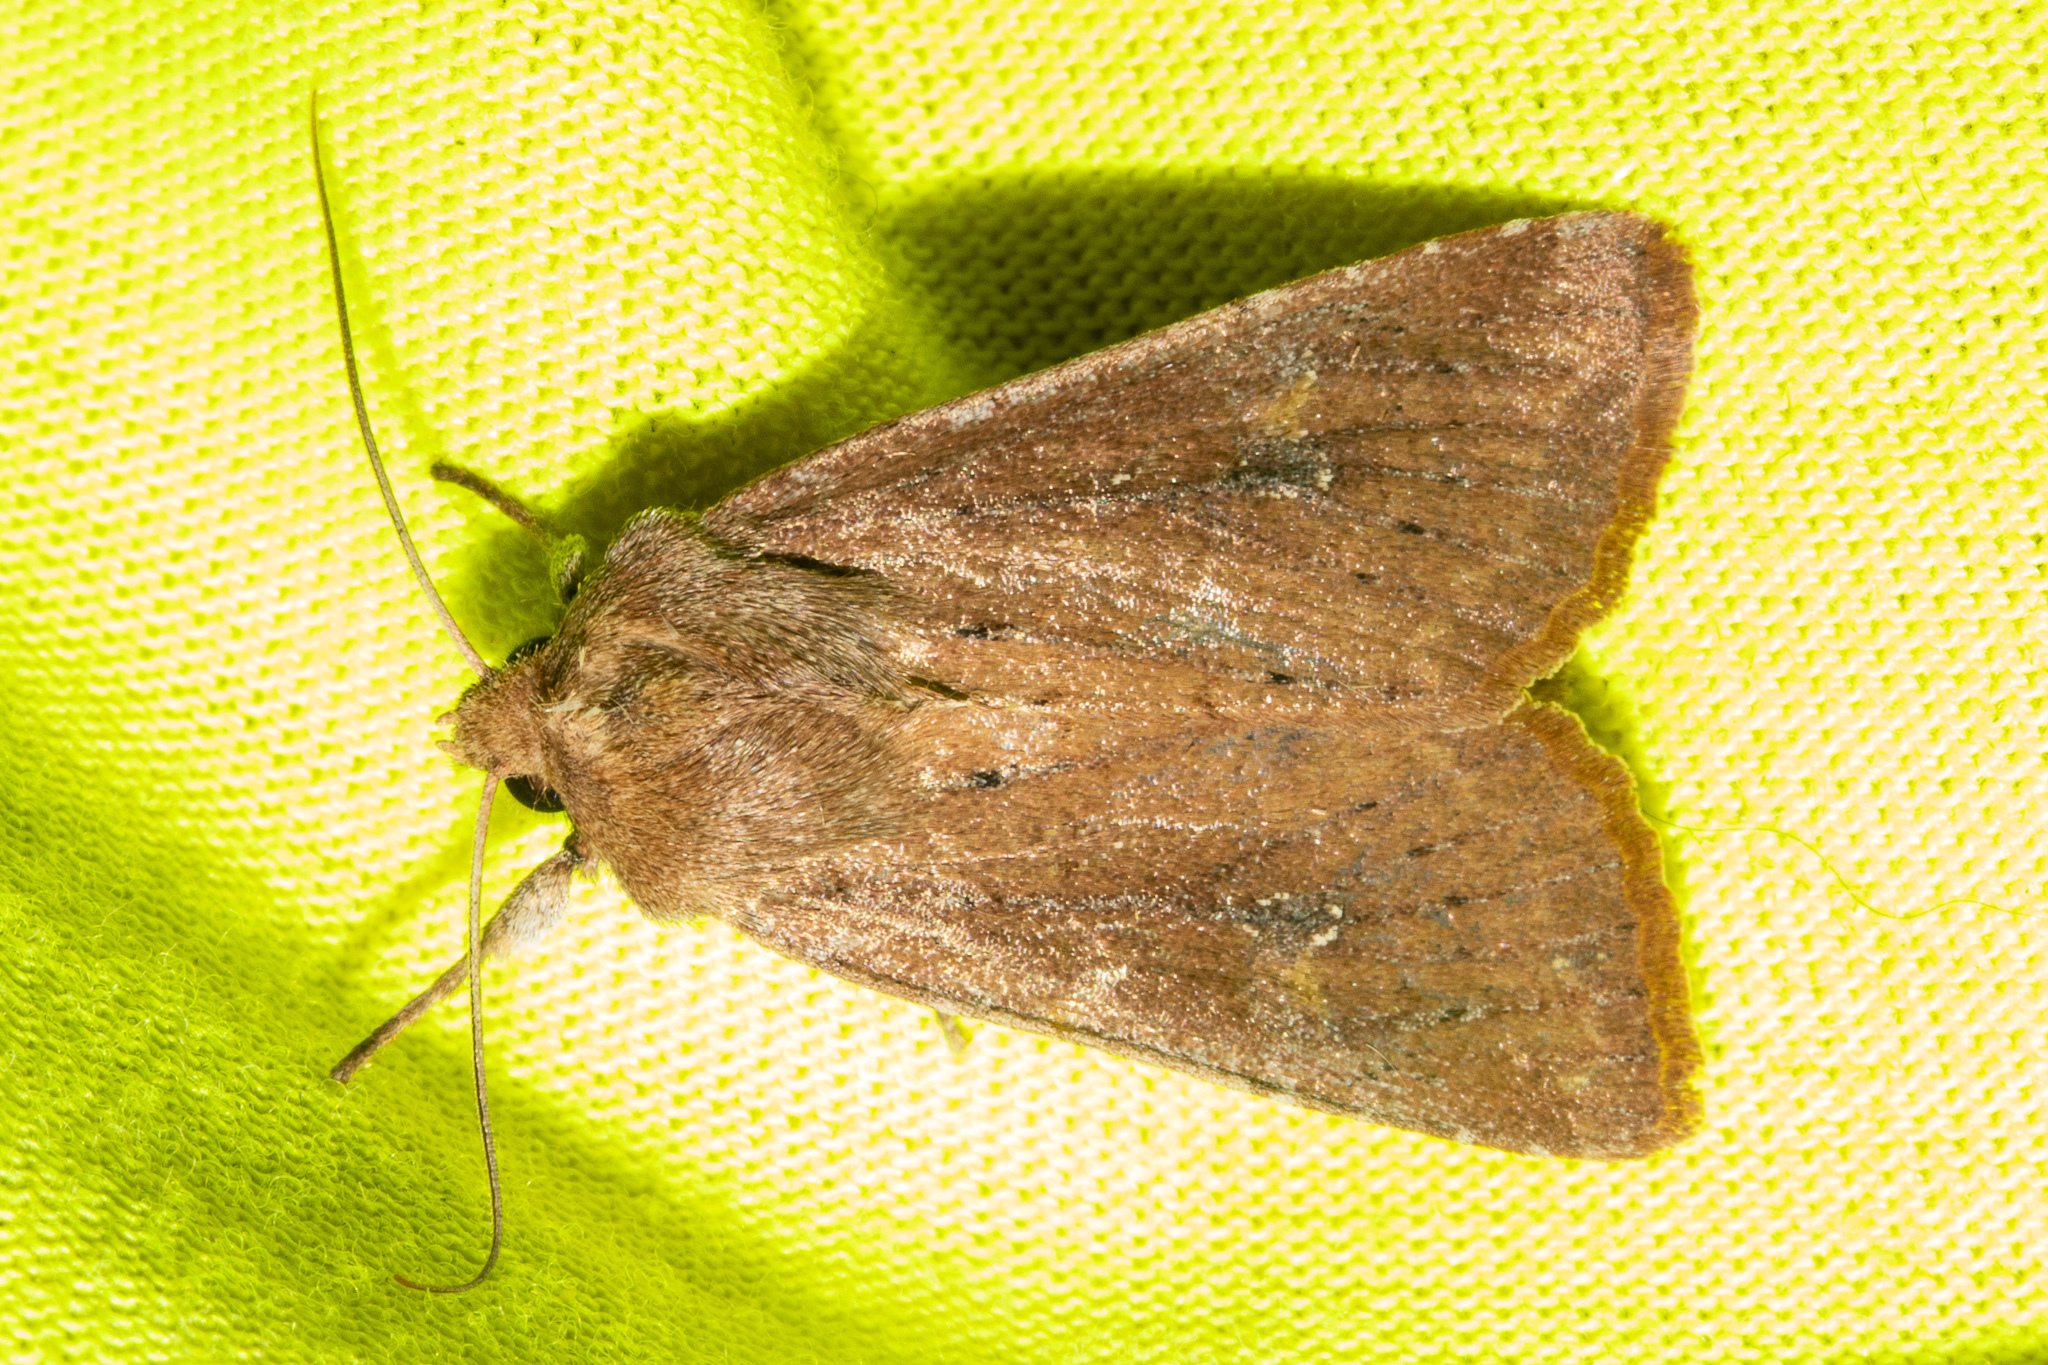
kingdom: Animalia
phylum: Arthropoda
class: Insecta
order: Lepidoptera
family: Noctuidae
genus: Ichneutica
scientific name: Ichneutica
